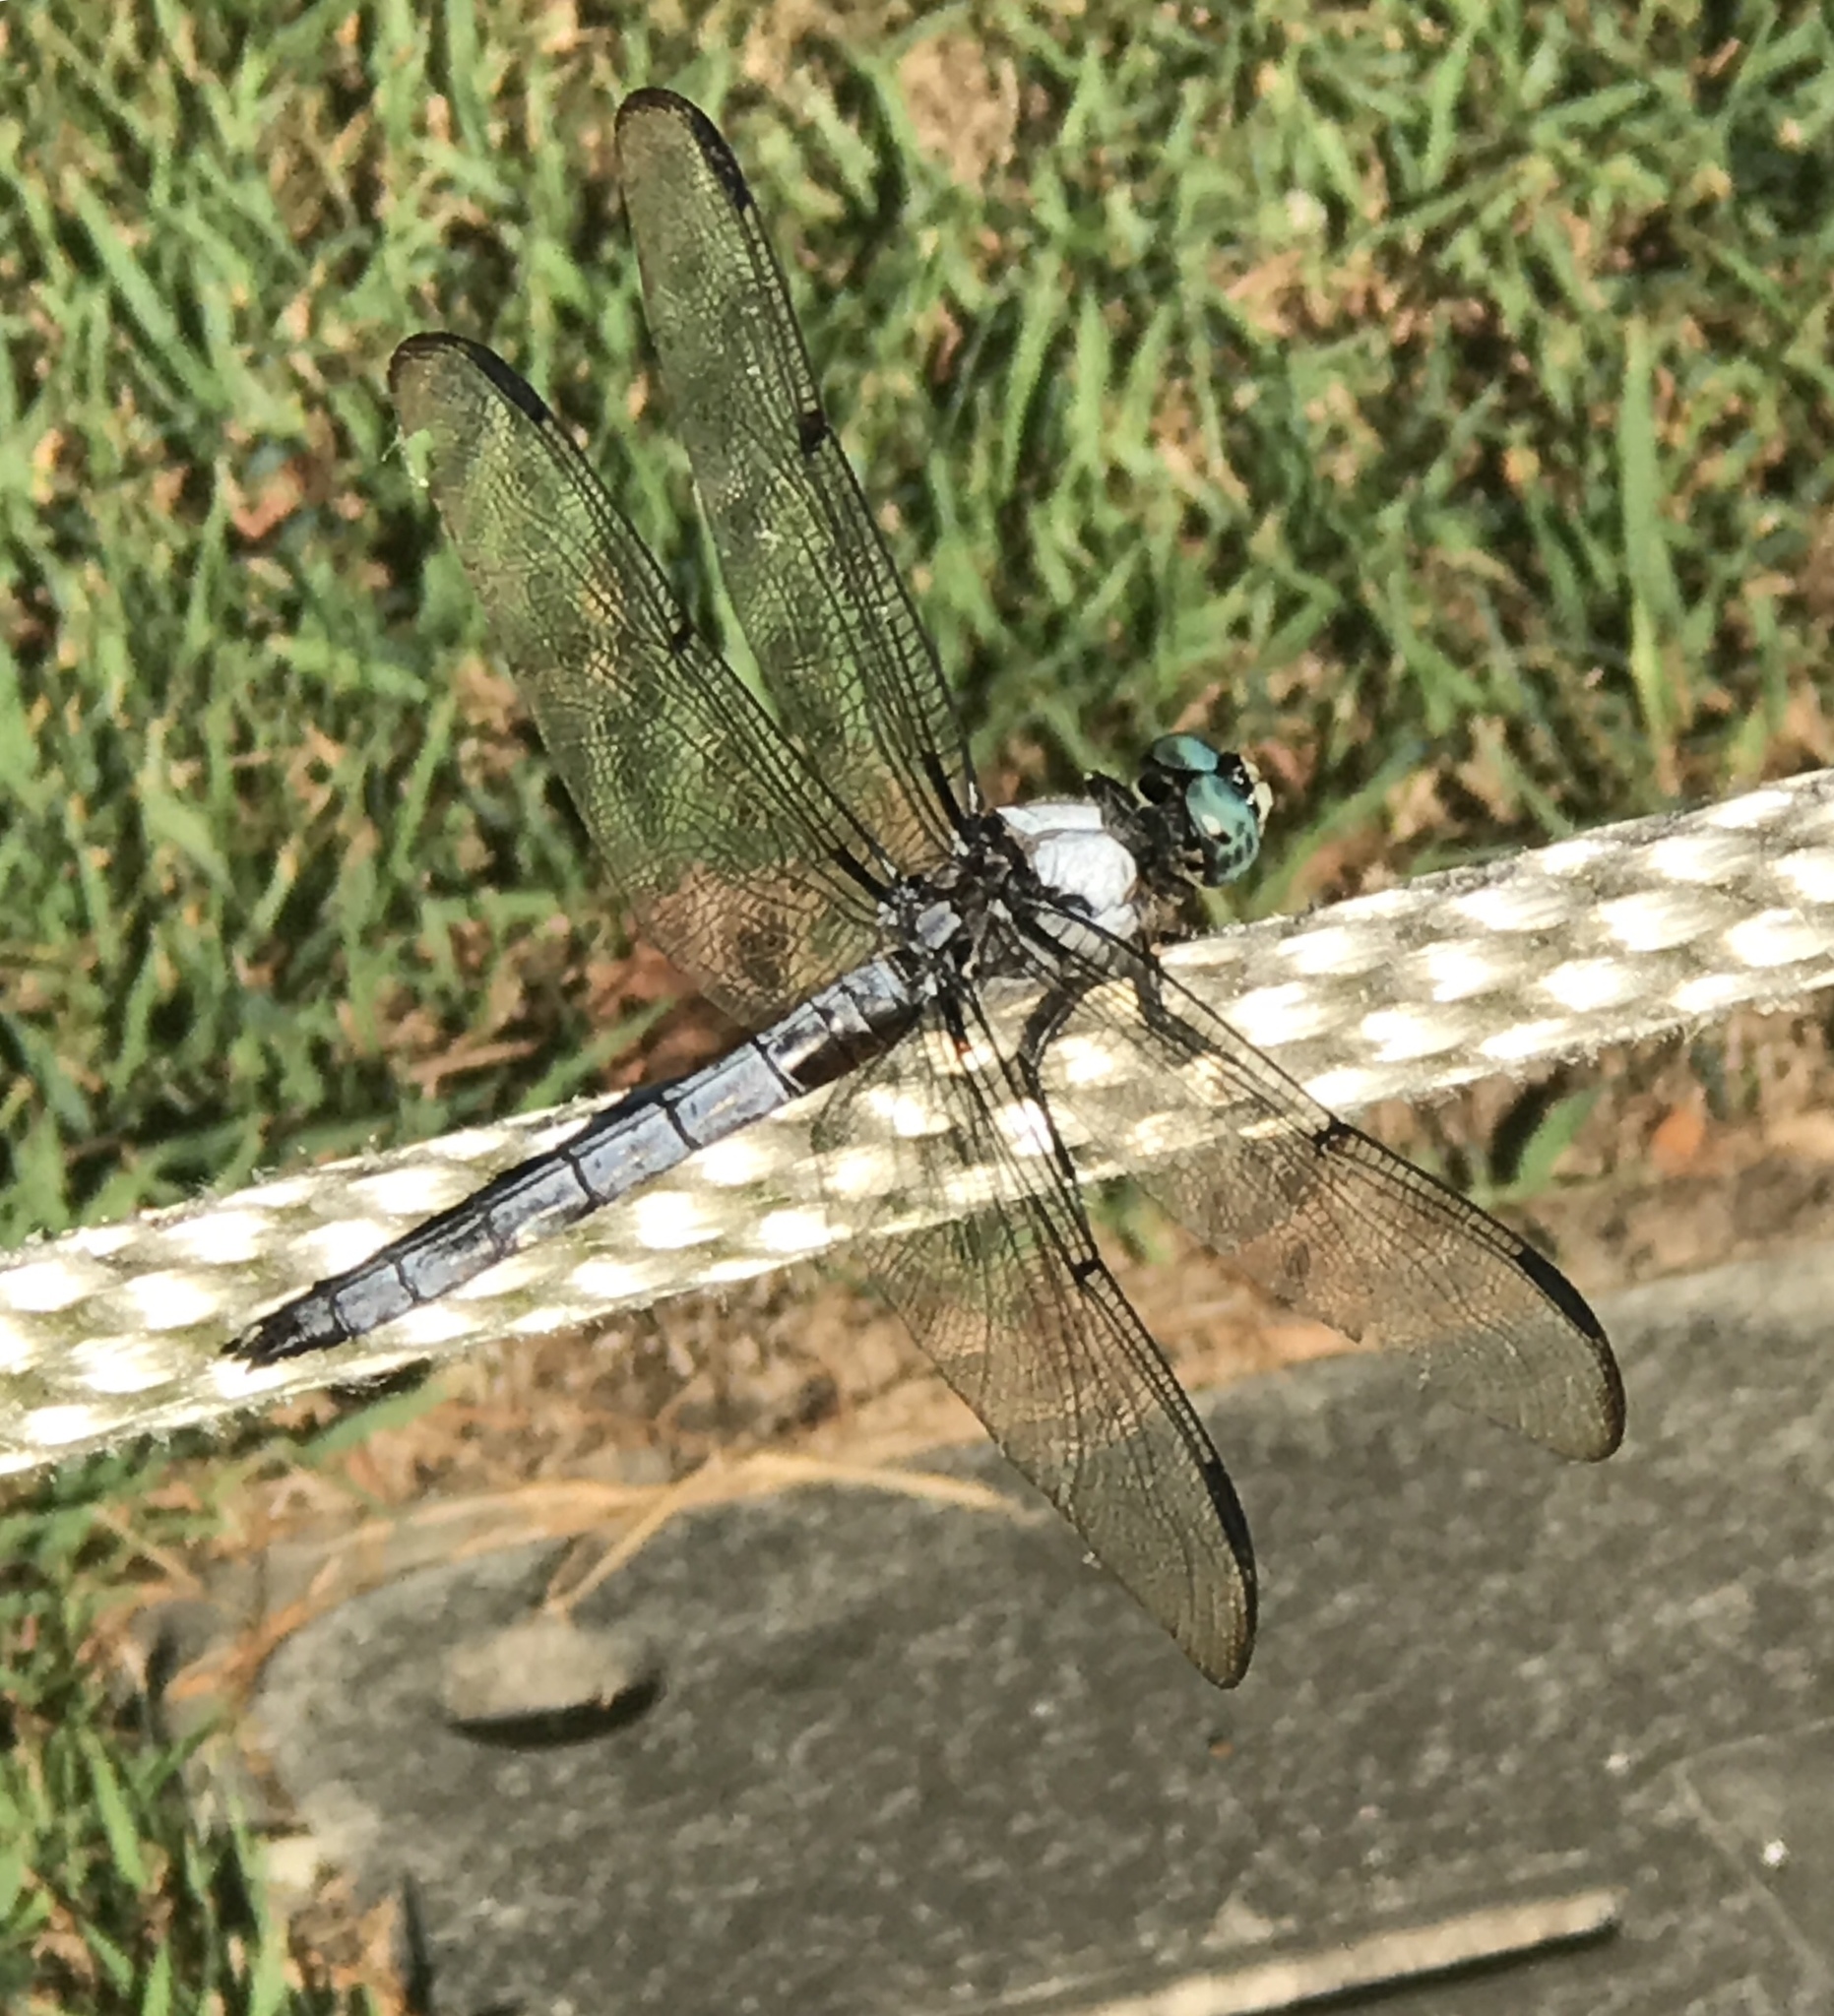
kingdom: Animalia
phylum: Arthropoda
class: Insecta
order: Odonata
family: Libellulidae
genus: Libellula
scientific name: Libellula vibrans
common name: Great blue skimmer
